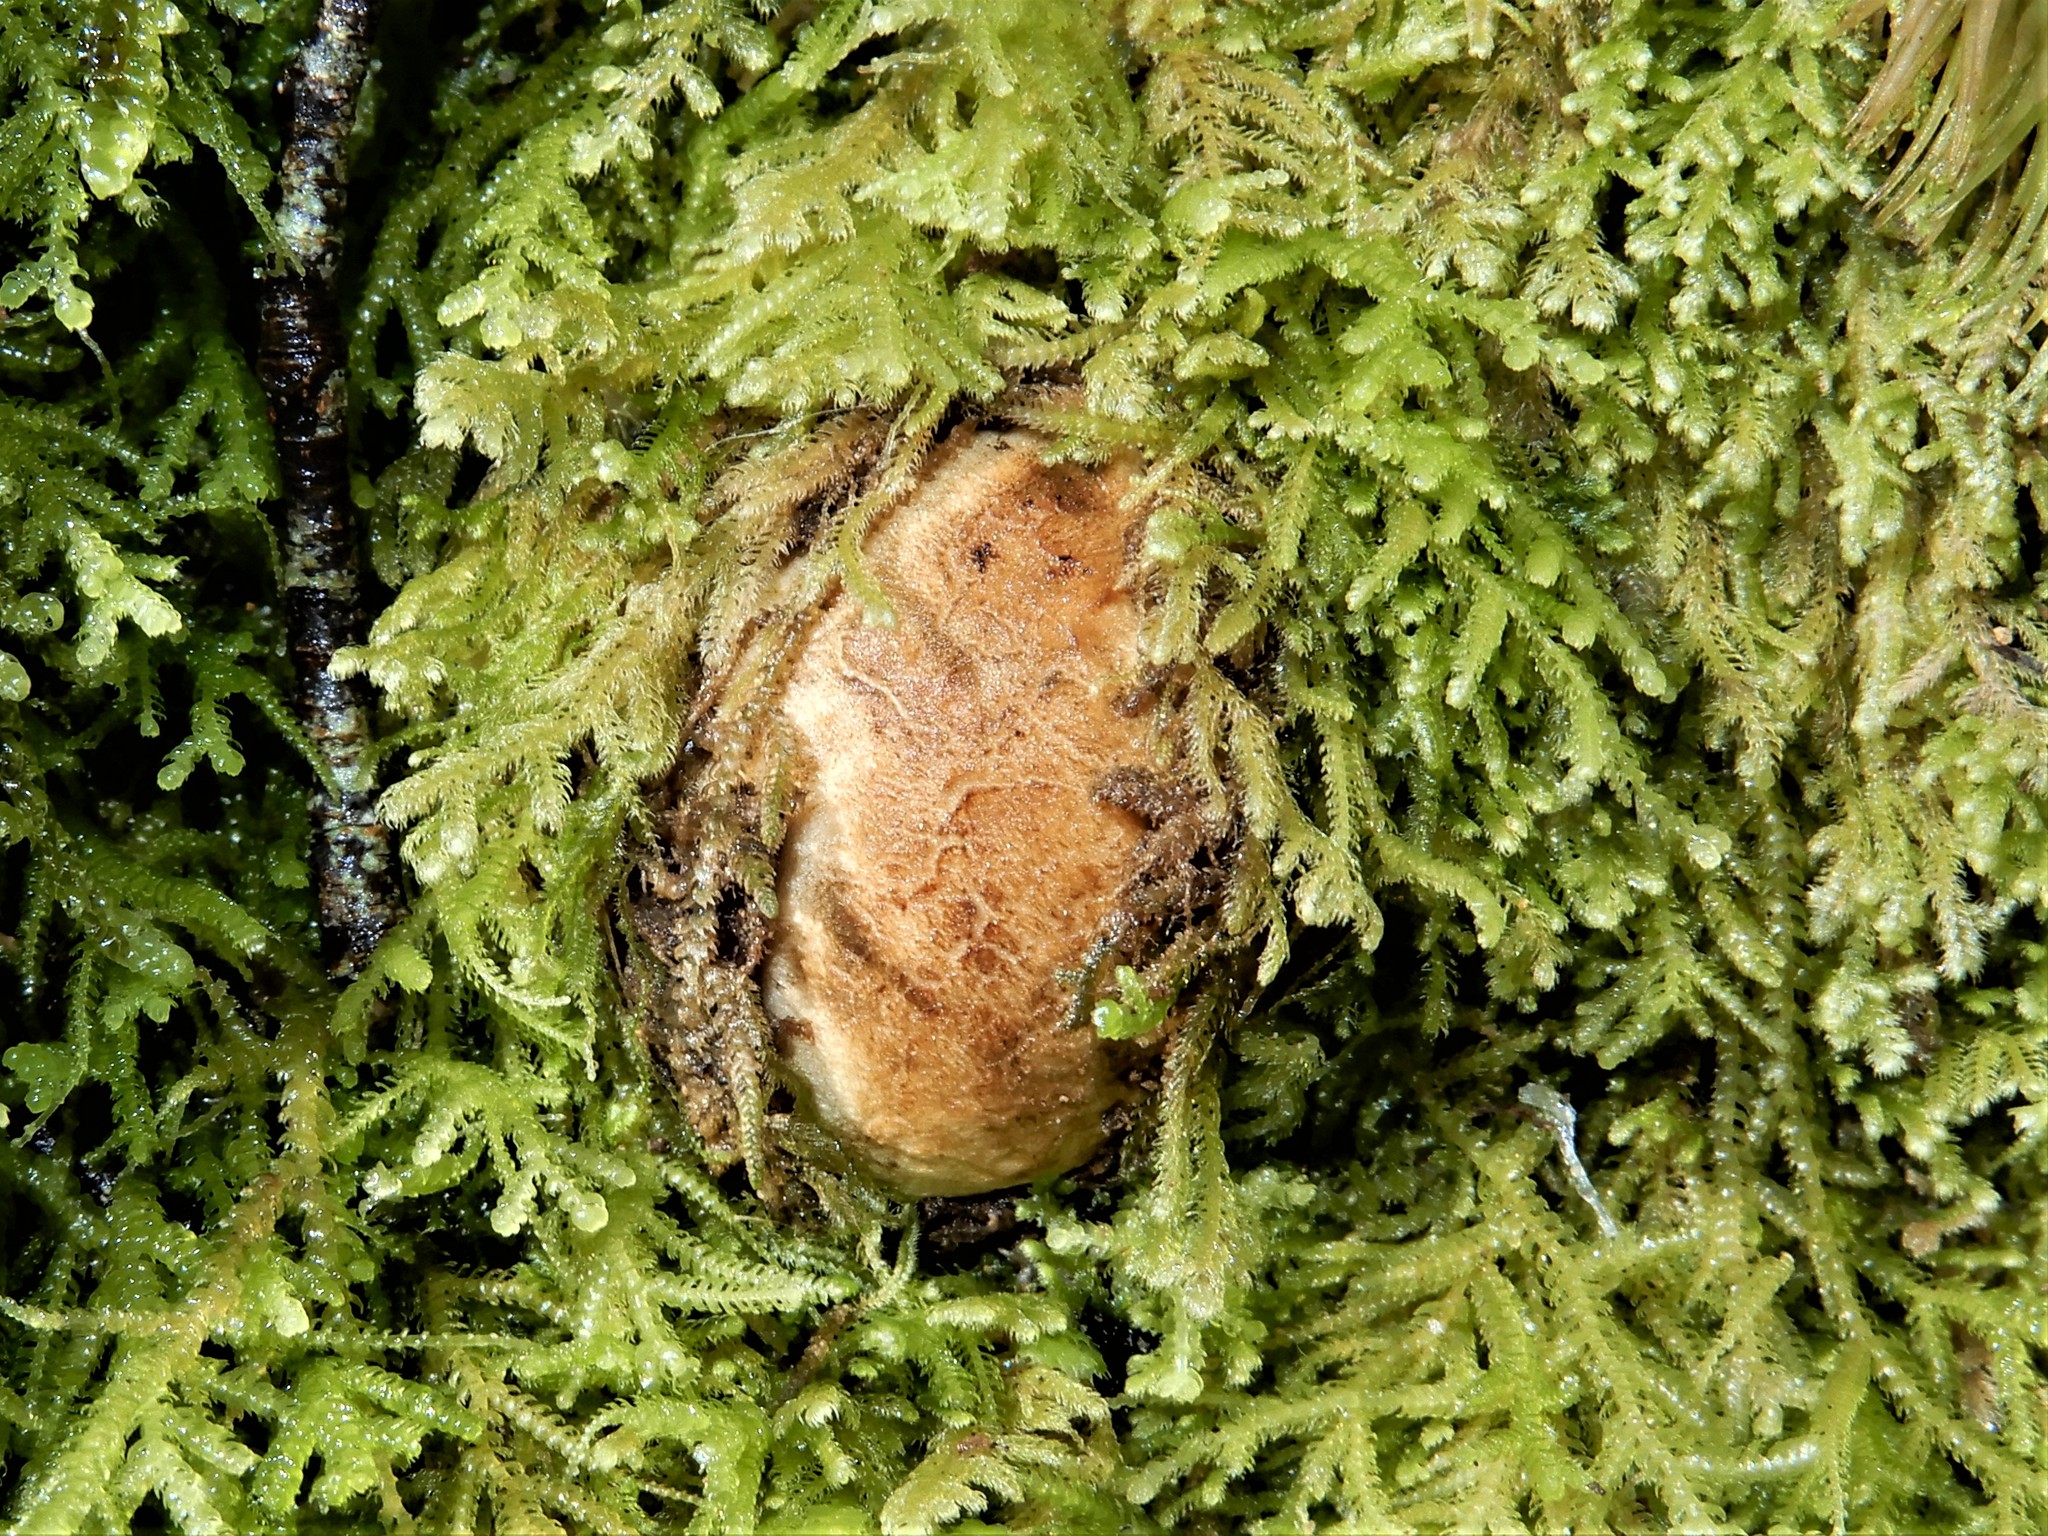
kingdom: Fungi
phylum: Basidiomycota
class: Agaricomycetes
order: Boletales
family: Boletaceae
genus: Octaviania
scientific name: Octaviania tasmanica
